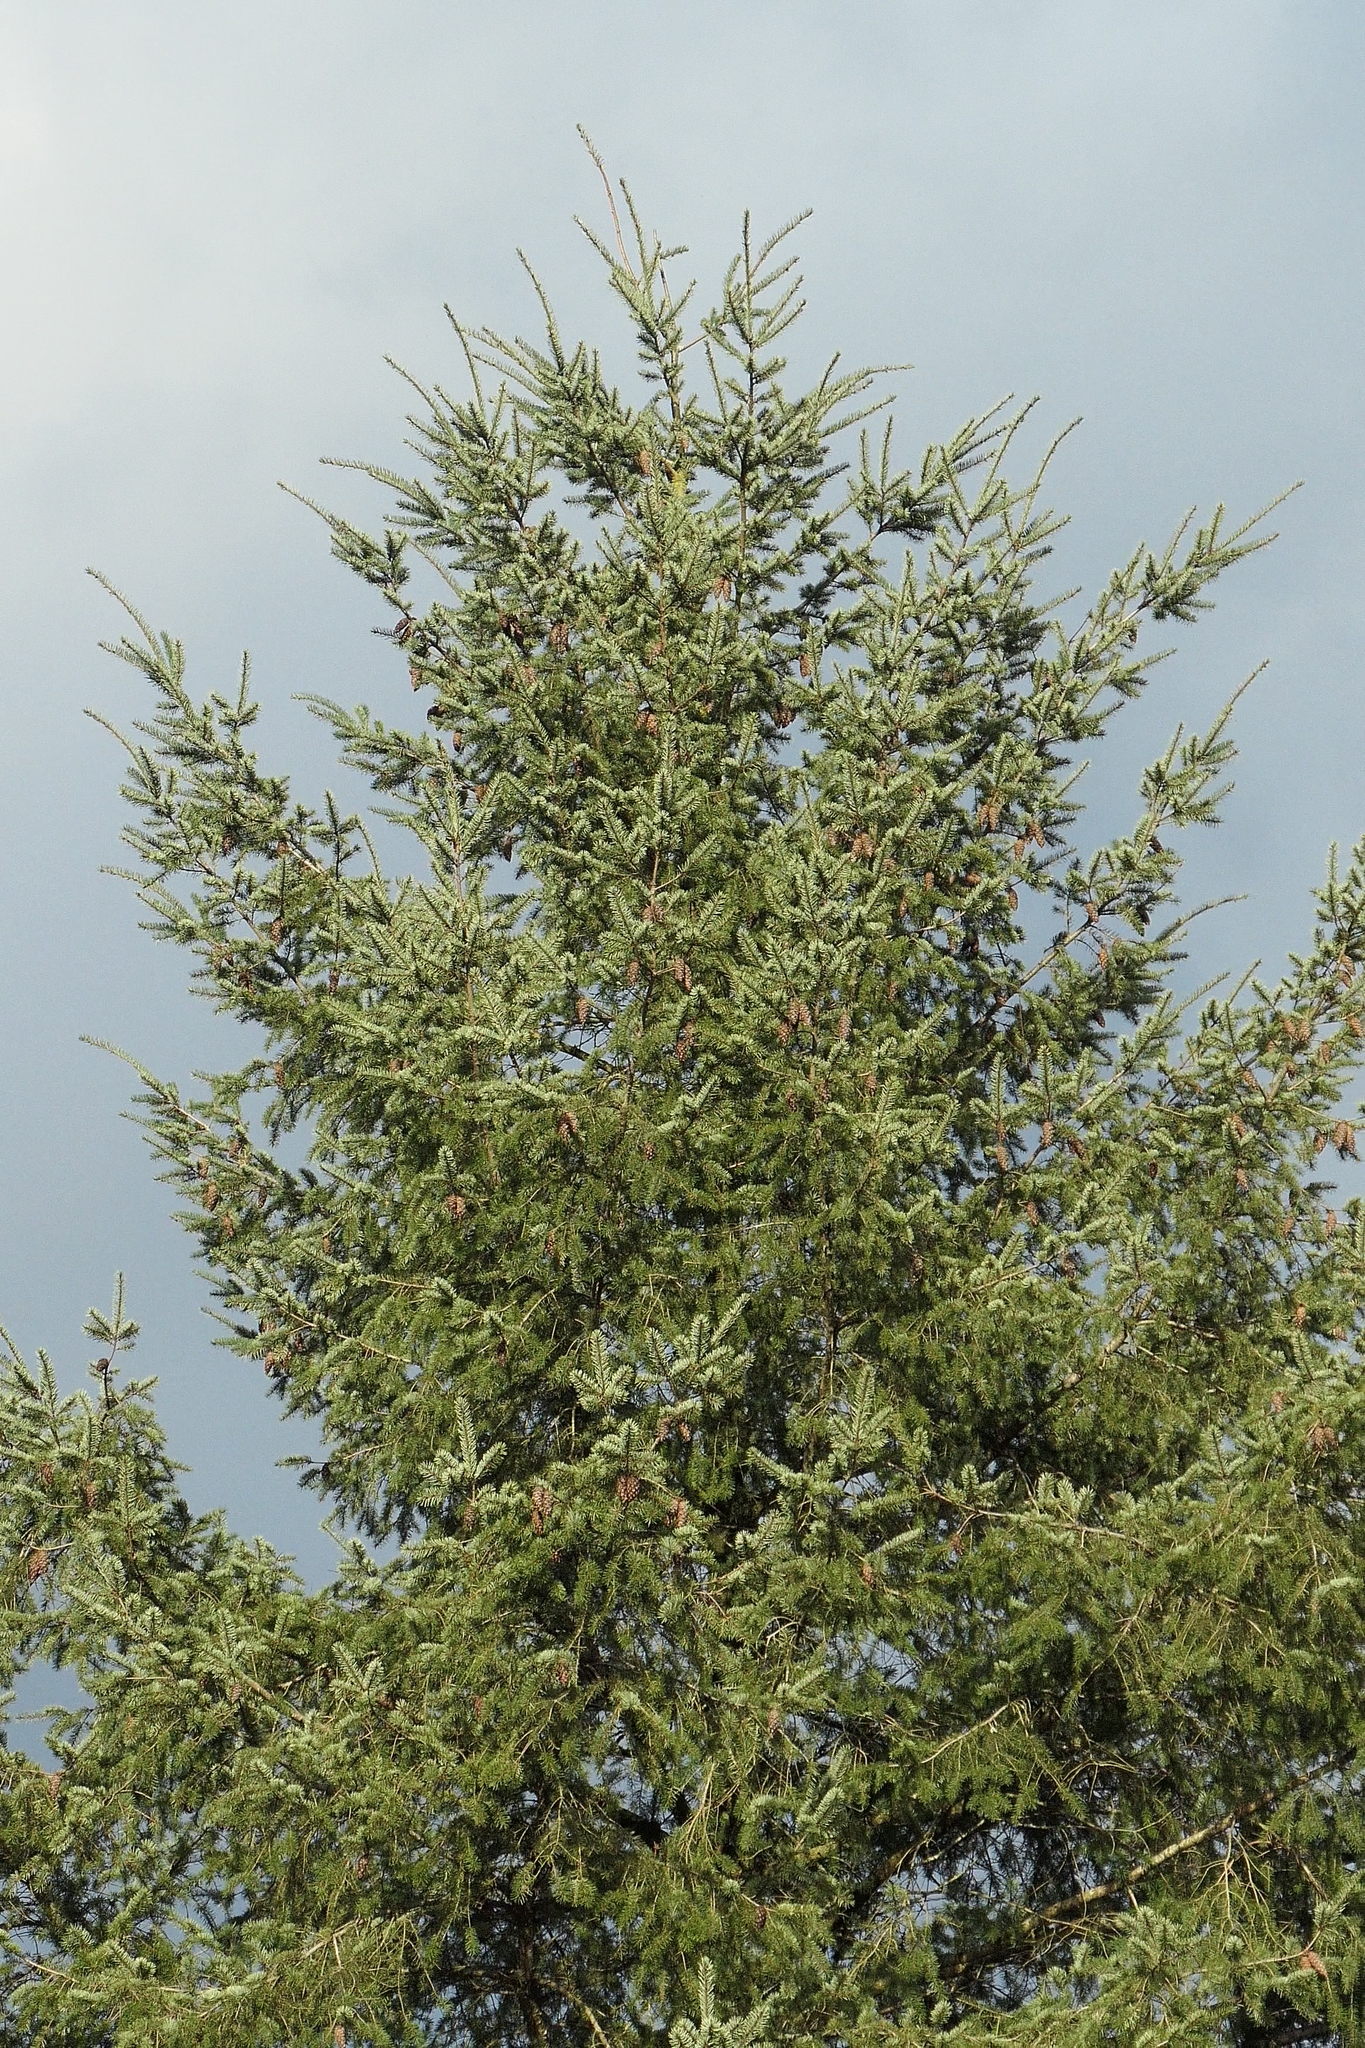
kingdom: Plantae
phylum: Tracheophyta
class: Pinopsida
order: Pinales
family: Pinaceae
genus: Pseudotsuga
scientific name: Pseudotsuga menziesii
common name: Douglas fir
